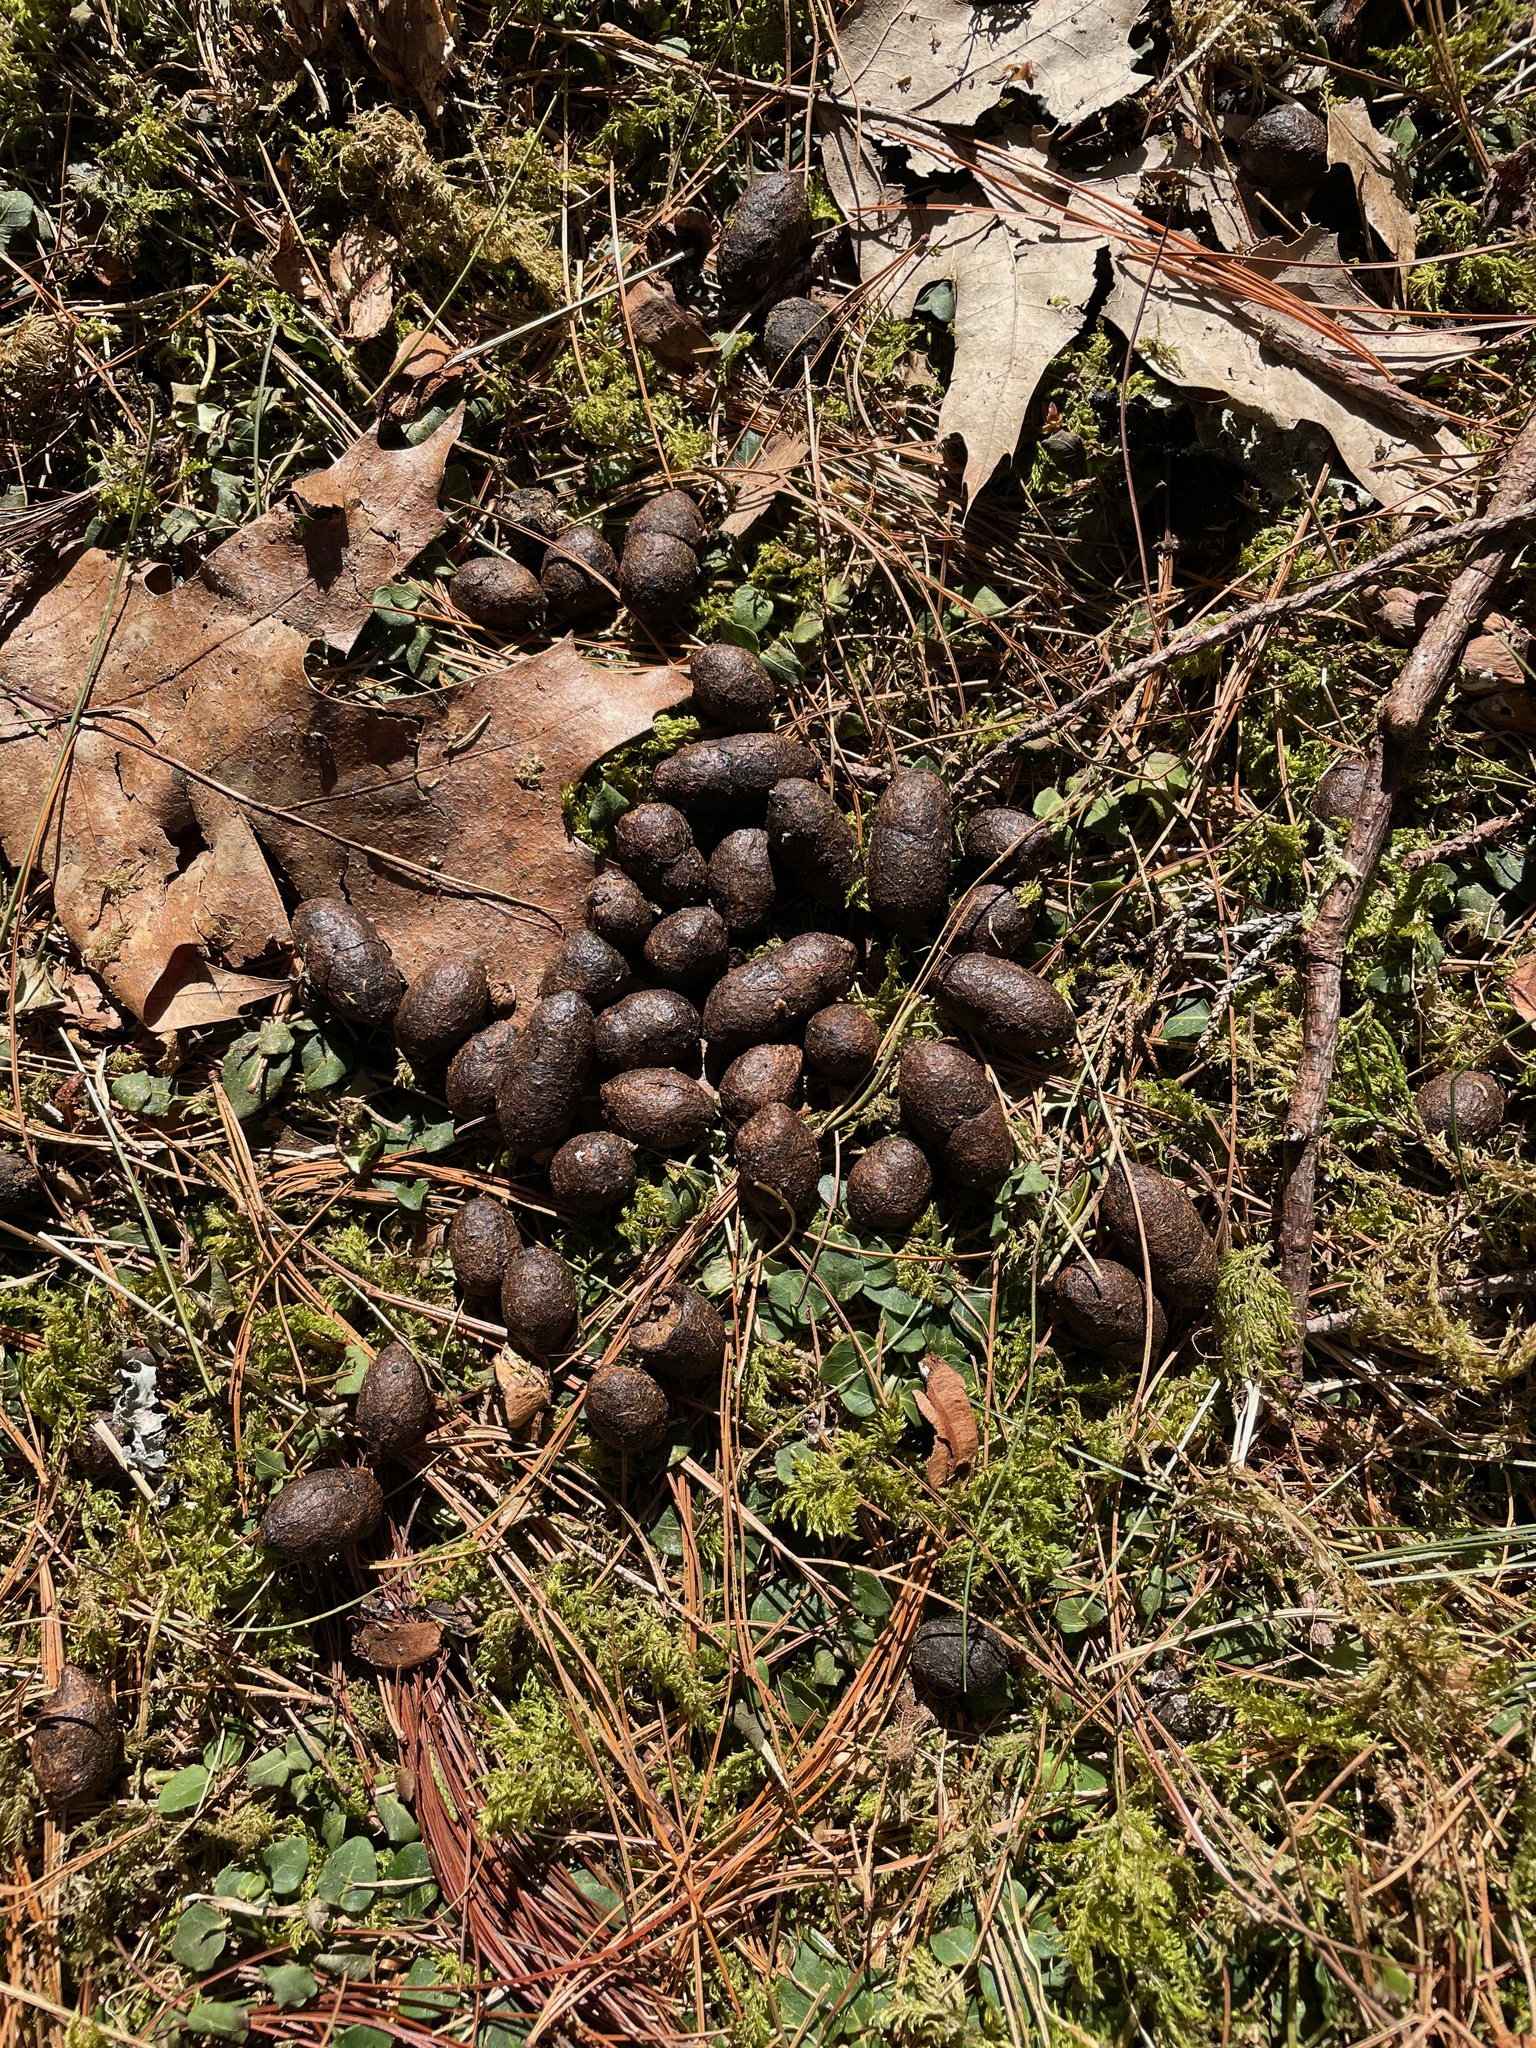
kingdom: Animalia
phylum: Chordata
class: Mammalia
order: Artiodactyla
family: Cervidae
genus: Odocoileus
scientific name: Odocoileus virginianus
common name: White-tailed deer
